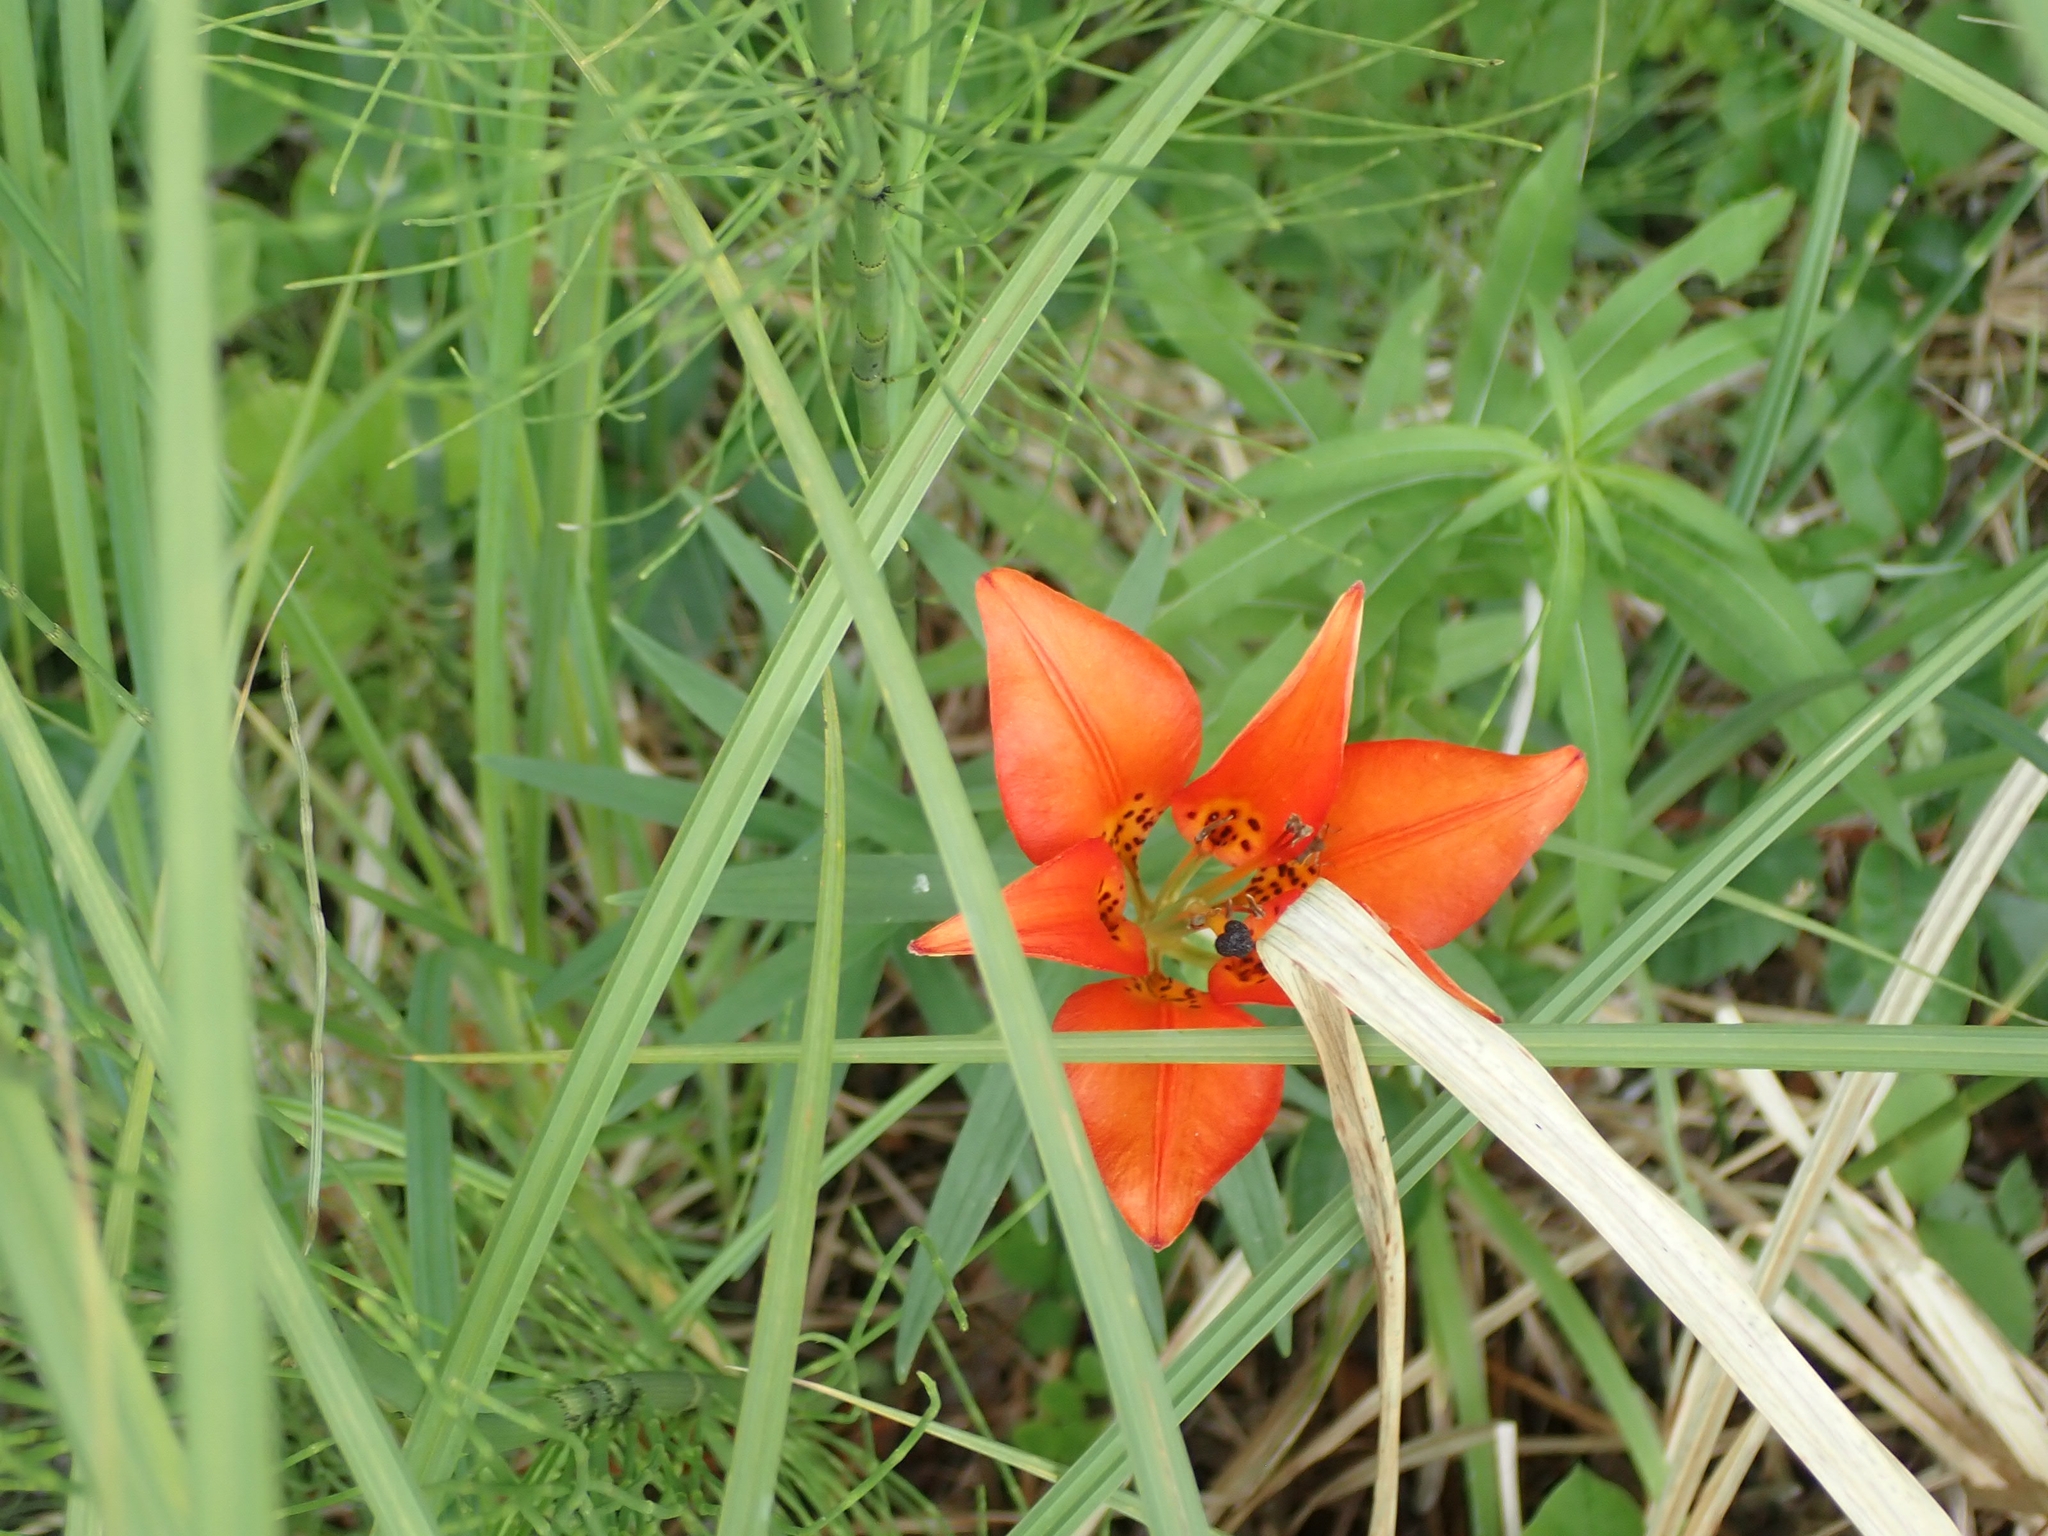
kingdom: Plantae
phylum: Tracheophyta
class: Liliopsida
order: Liliales
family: Liliaceae
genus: Lilium
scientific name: Lilium philadelphicum
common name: Red lily
